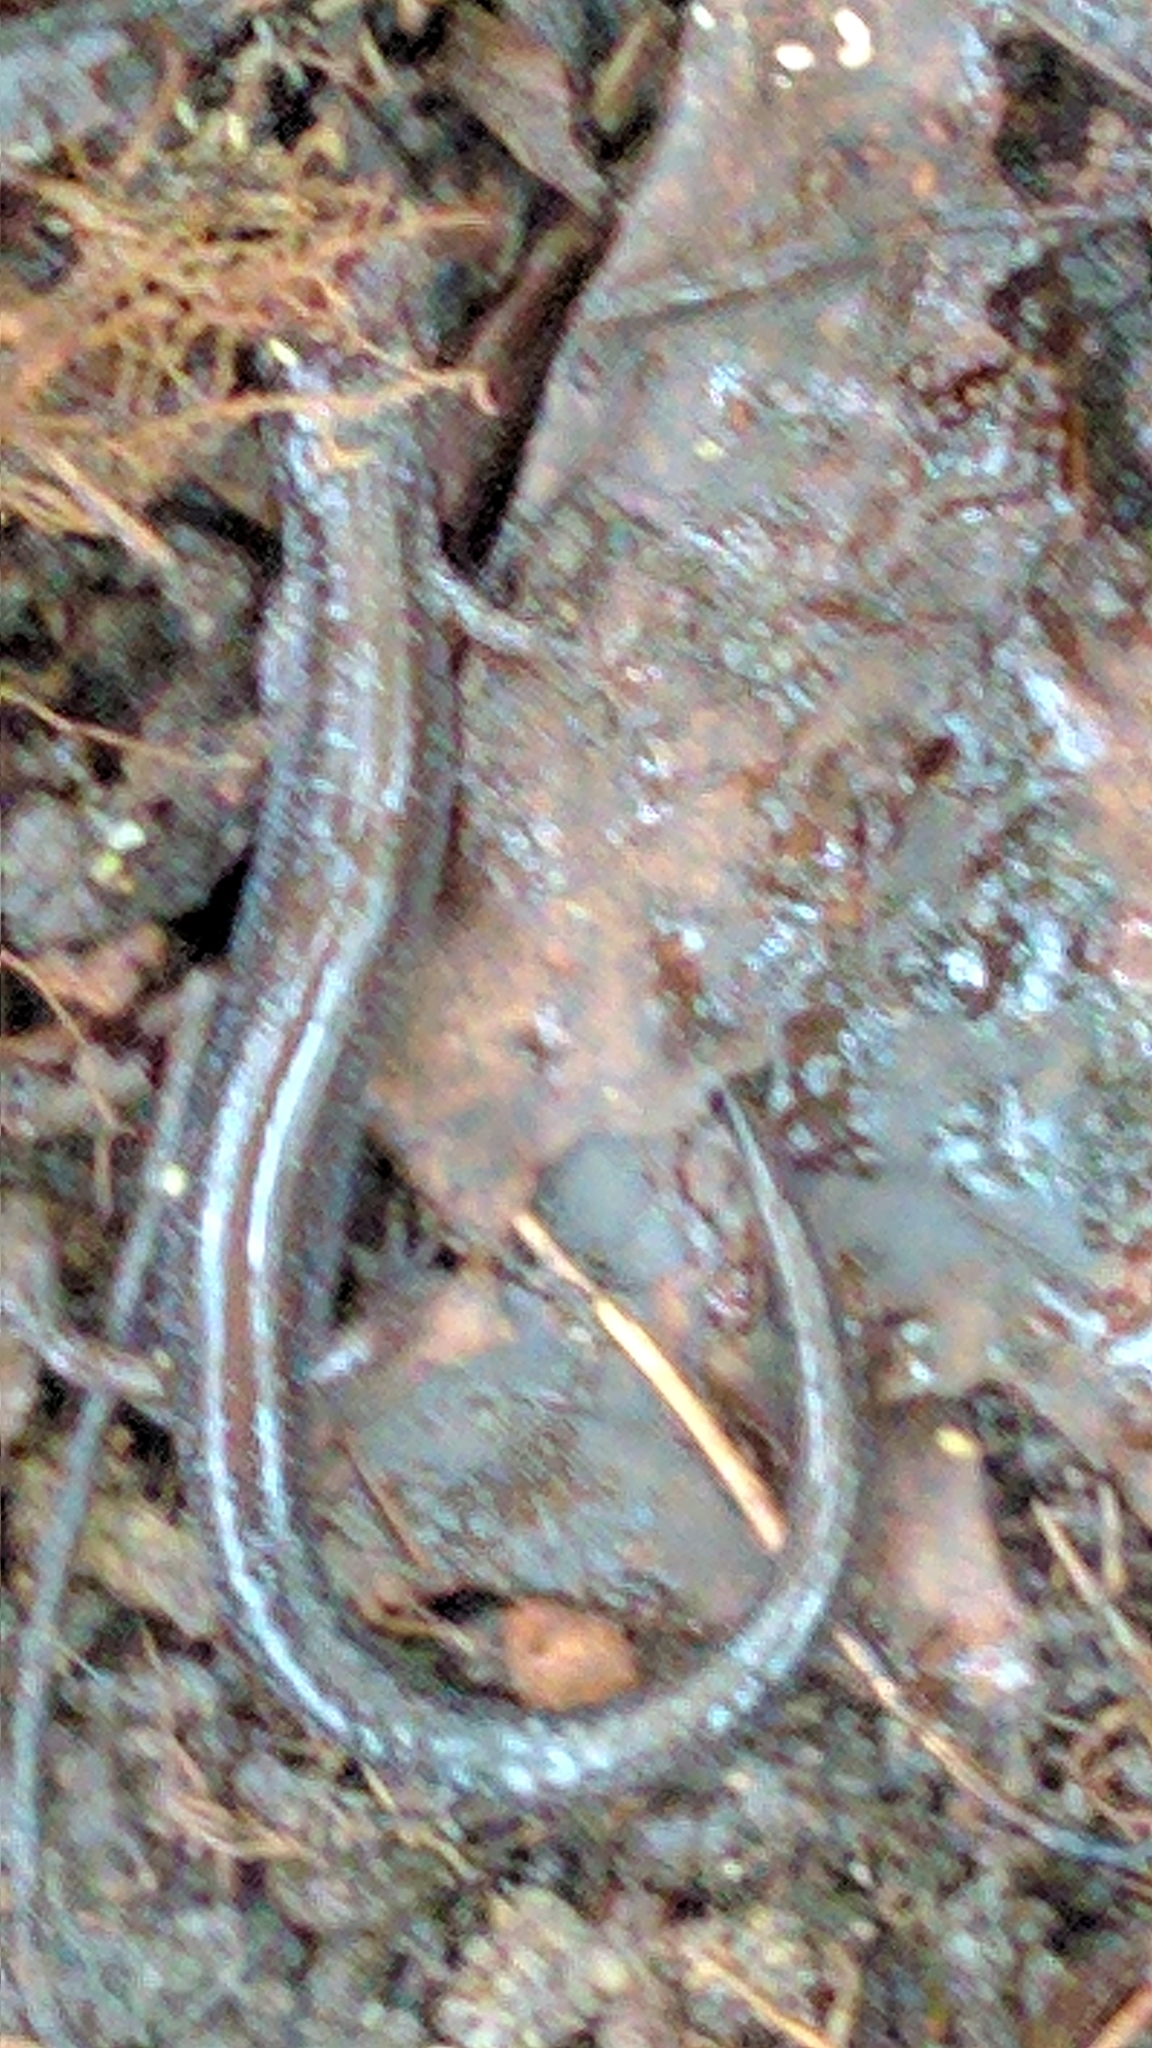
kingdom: Animalia
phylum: Chordata
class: Amphibia
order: Caudata
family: Plethodontidae
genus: Plethodon
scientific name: Plethodon cinereus
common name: Redback salamander
